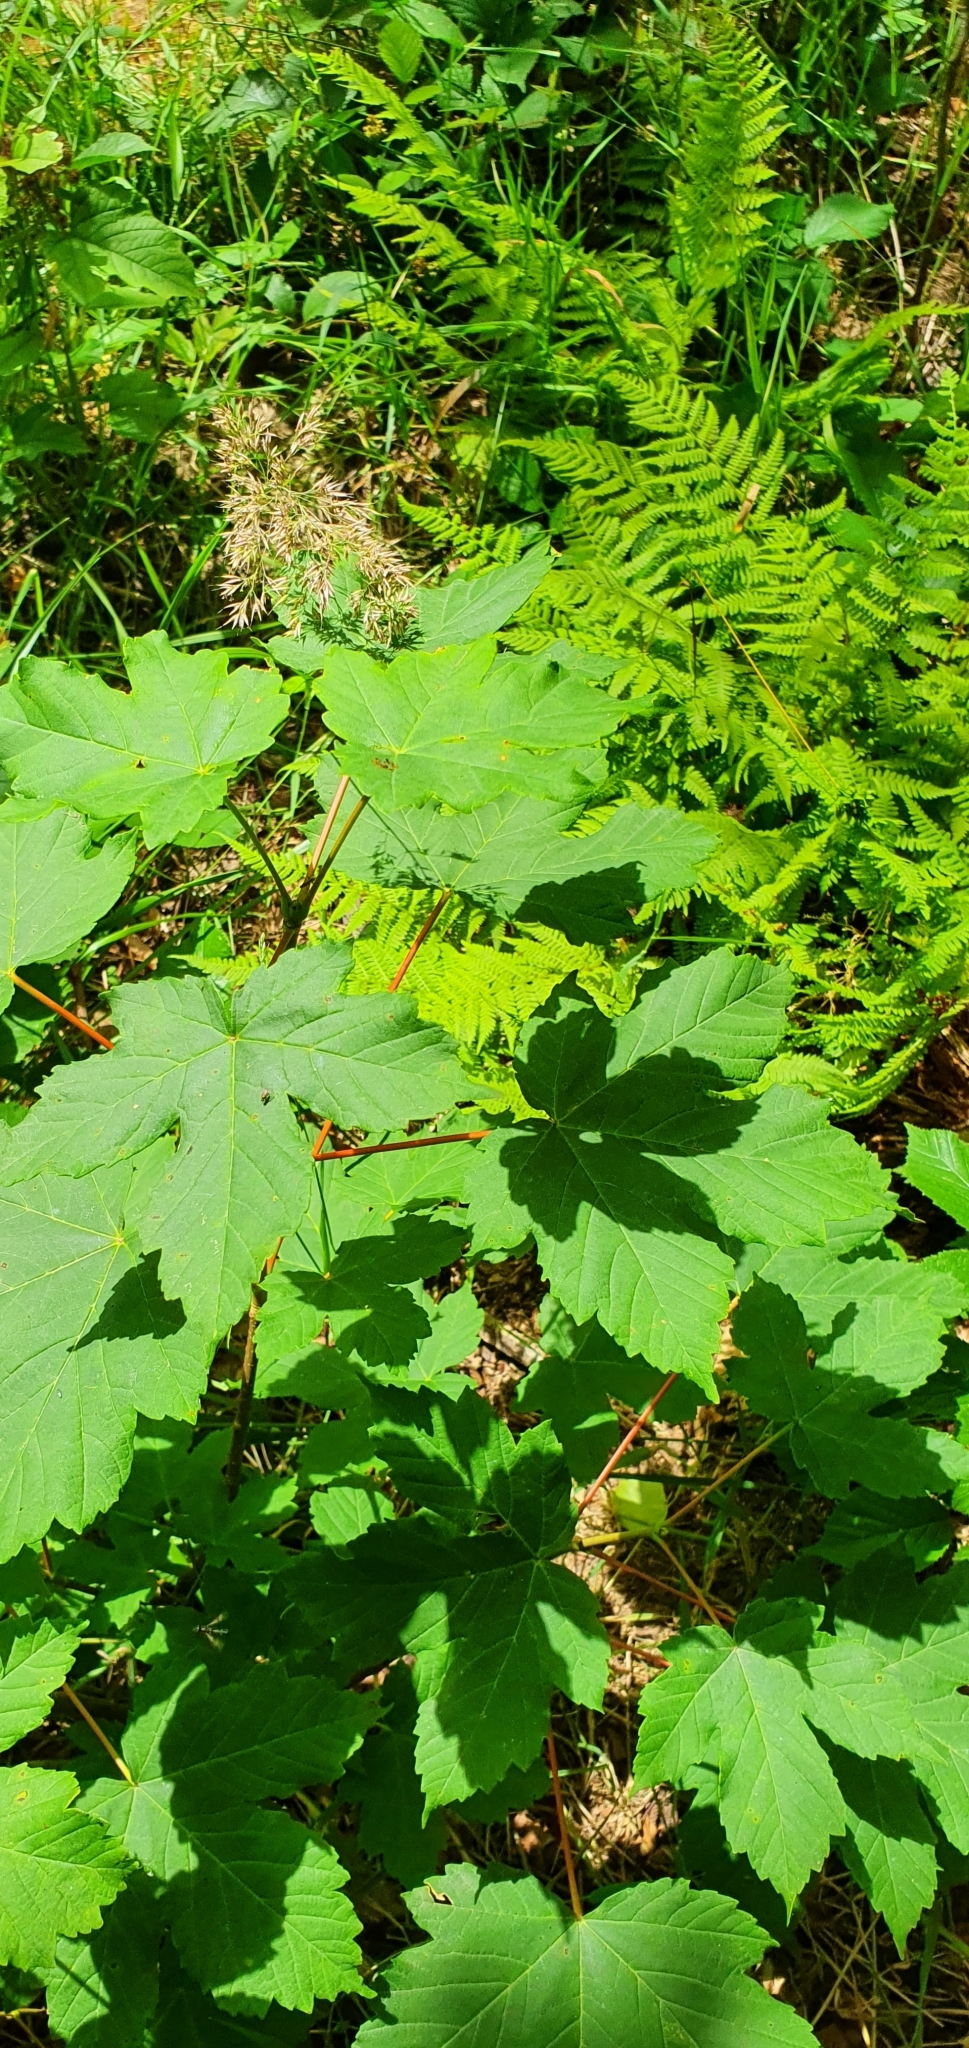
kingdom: Plantae
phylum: Tracheophyta
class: Magnoliopsida
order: Sapindales
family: Sapindaceae
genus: Acer
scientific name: Acer pseudoplatanus
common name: Sycamore
